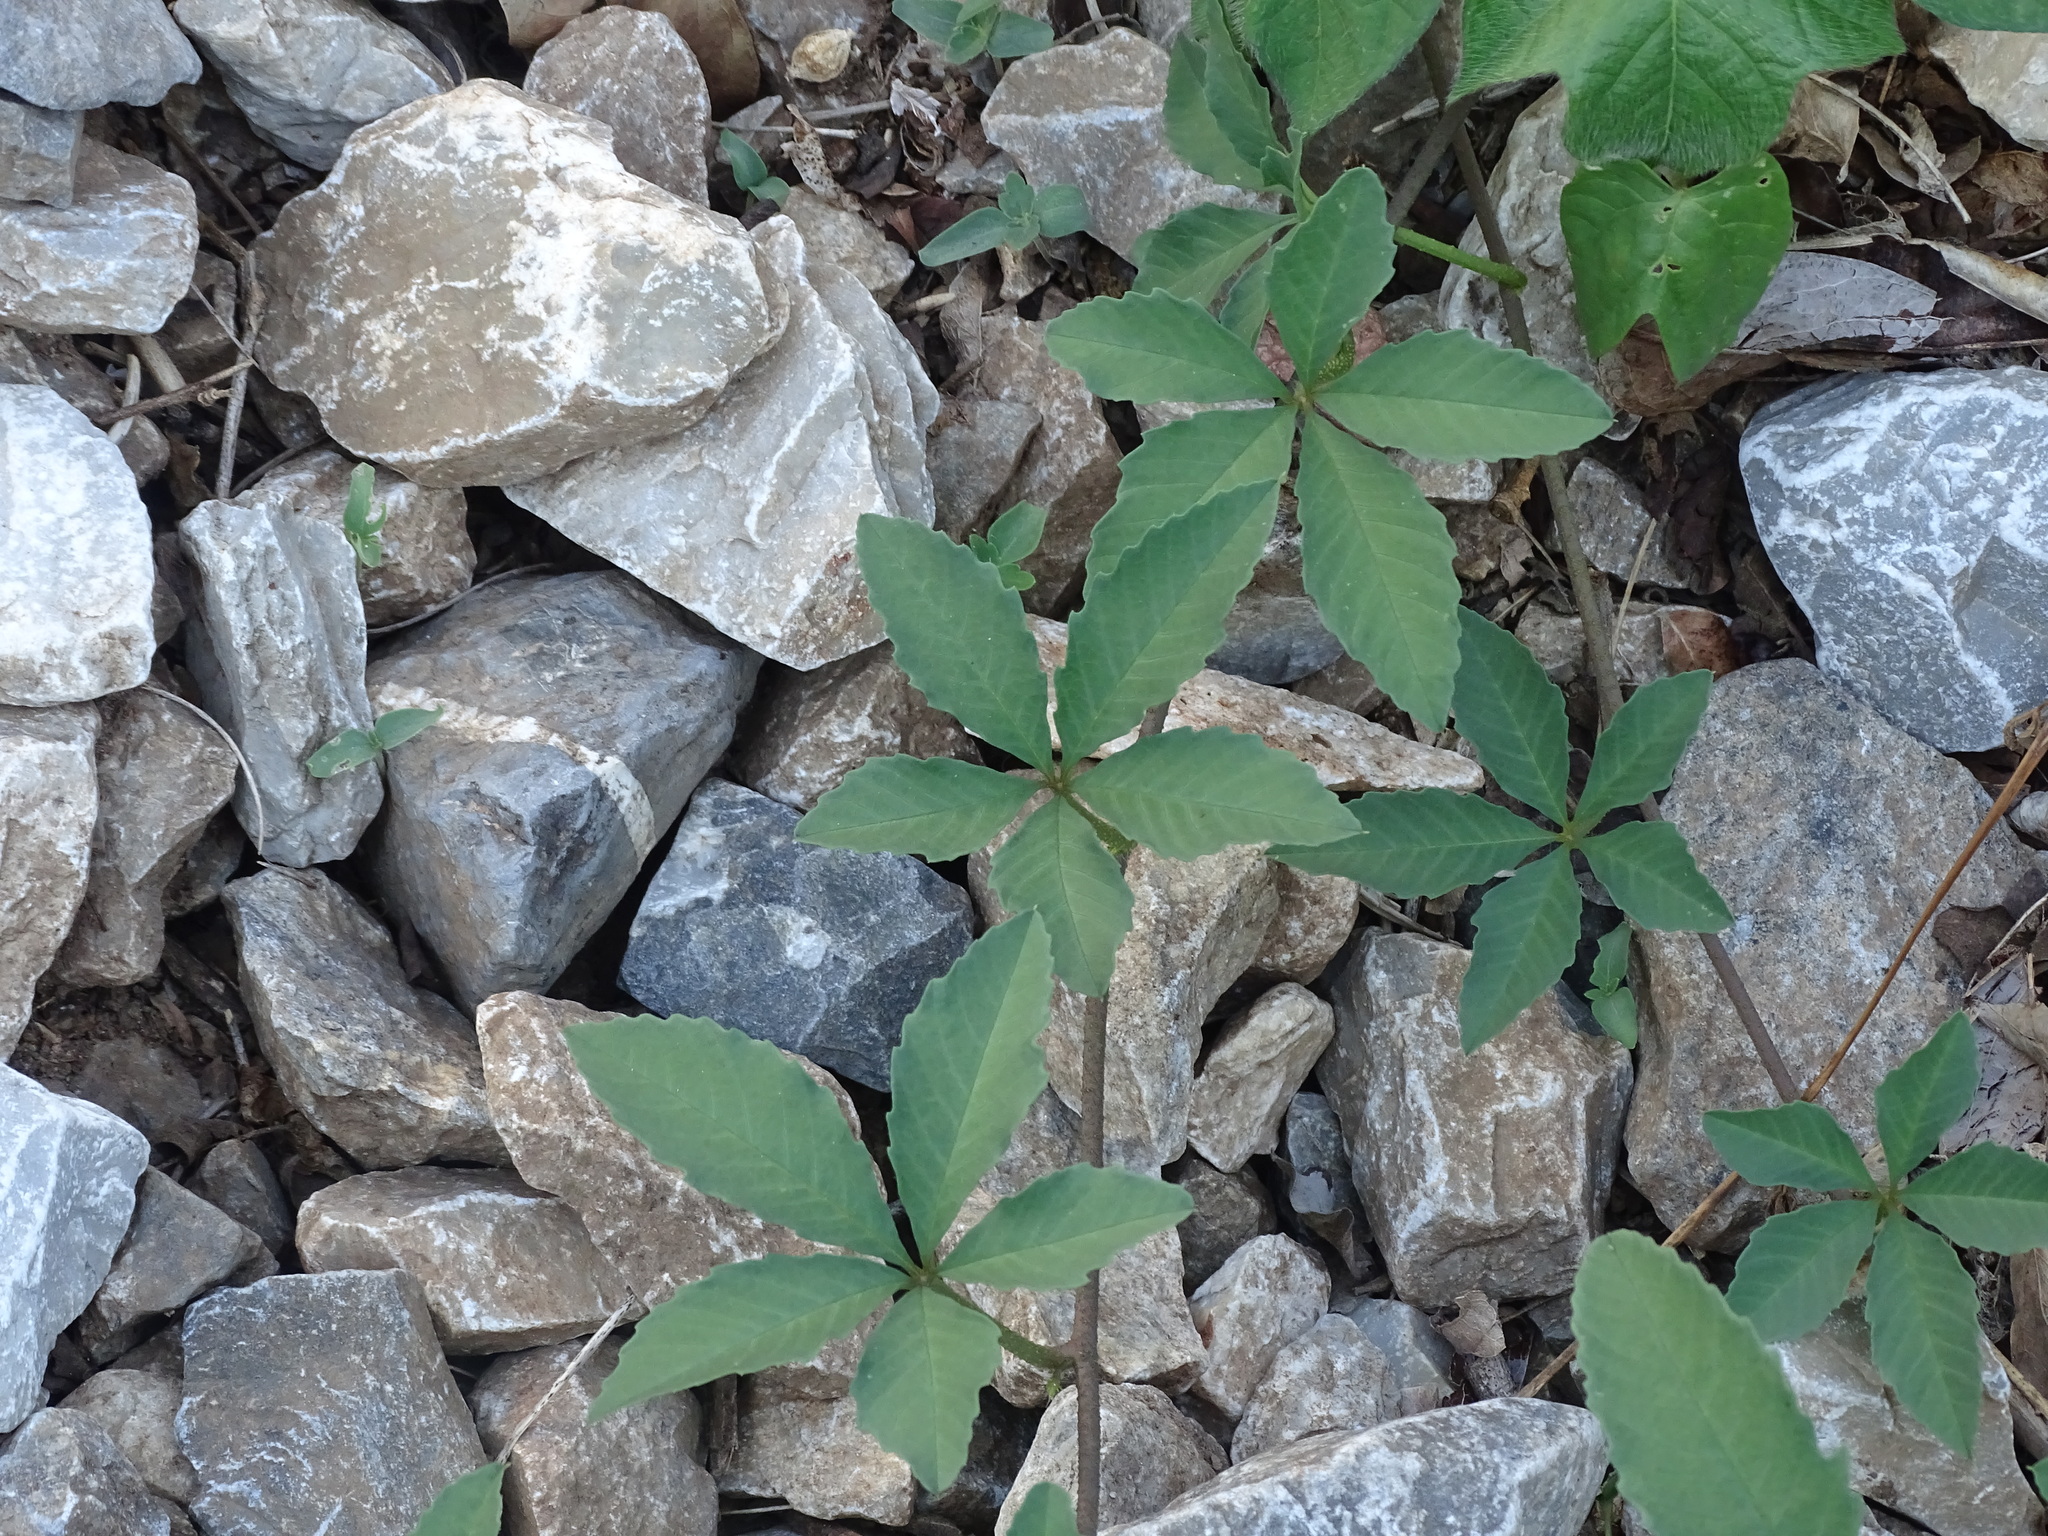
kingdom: Plantae
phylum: Tracheophyta
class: Magnoliopsida
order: Solanales
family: Convolvulaceae
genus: Distimake
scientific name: Distimake quinquefolius
